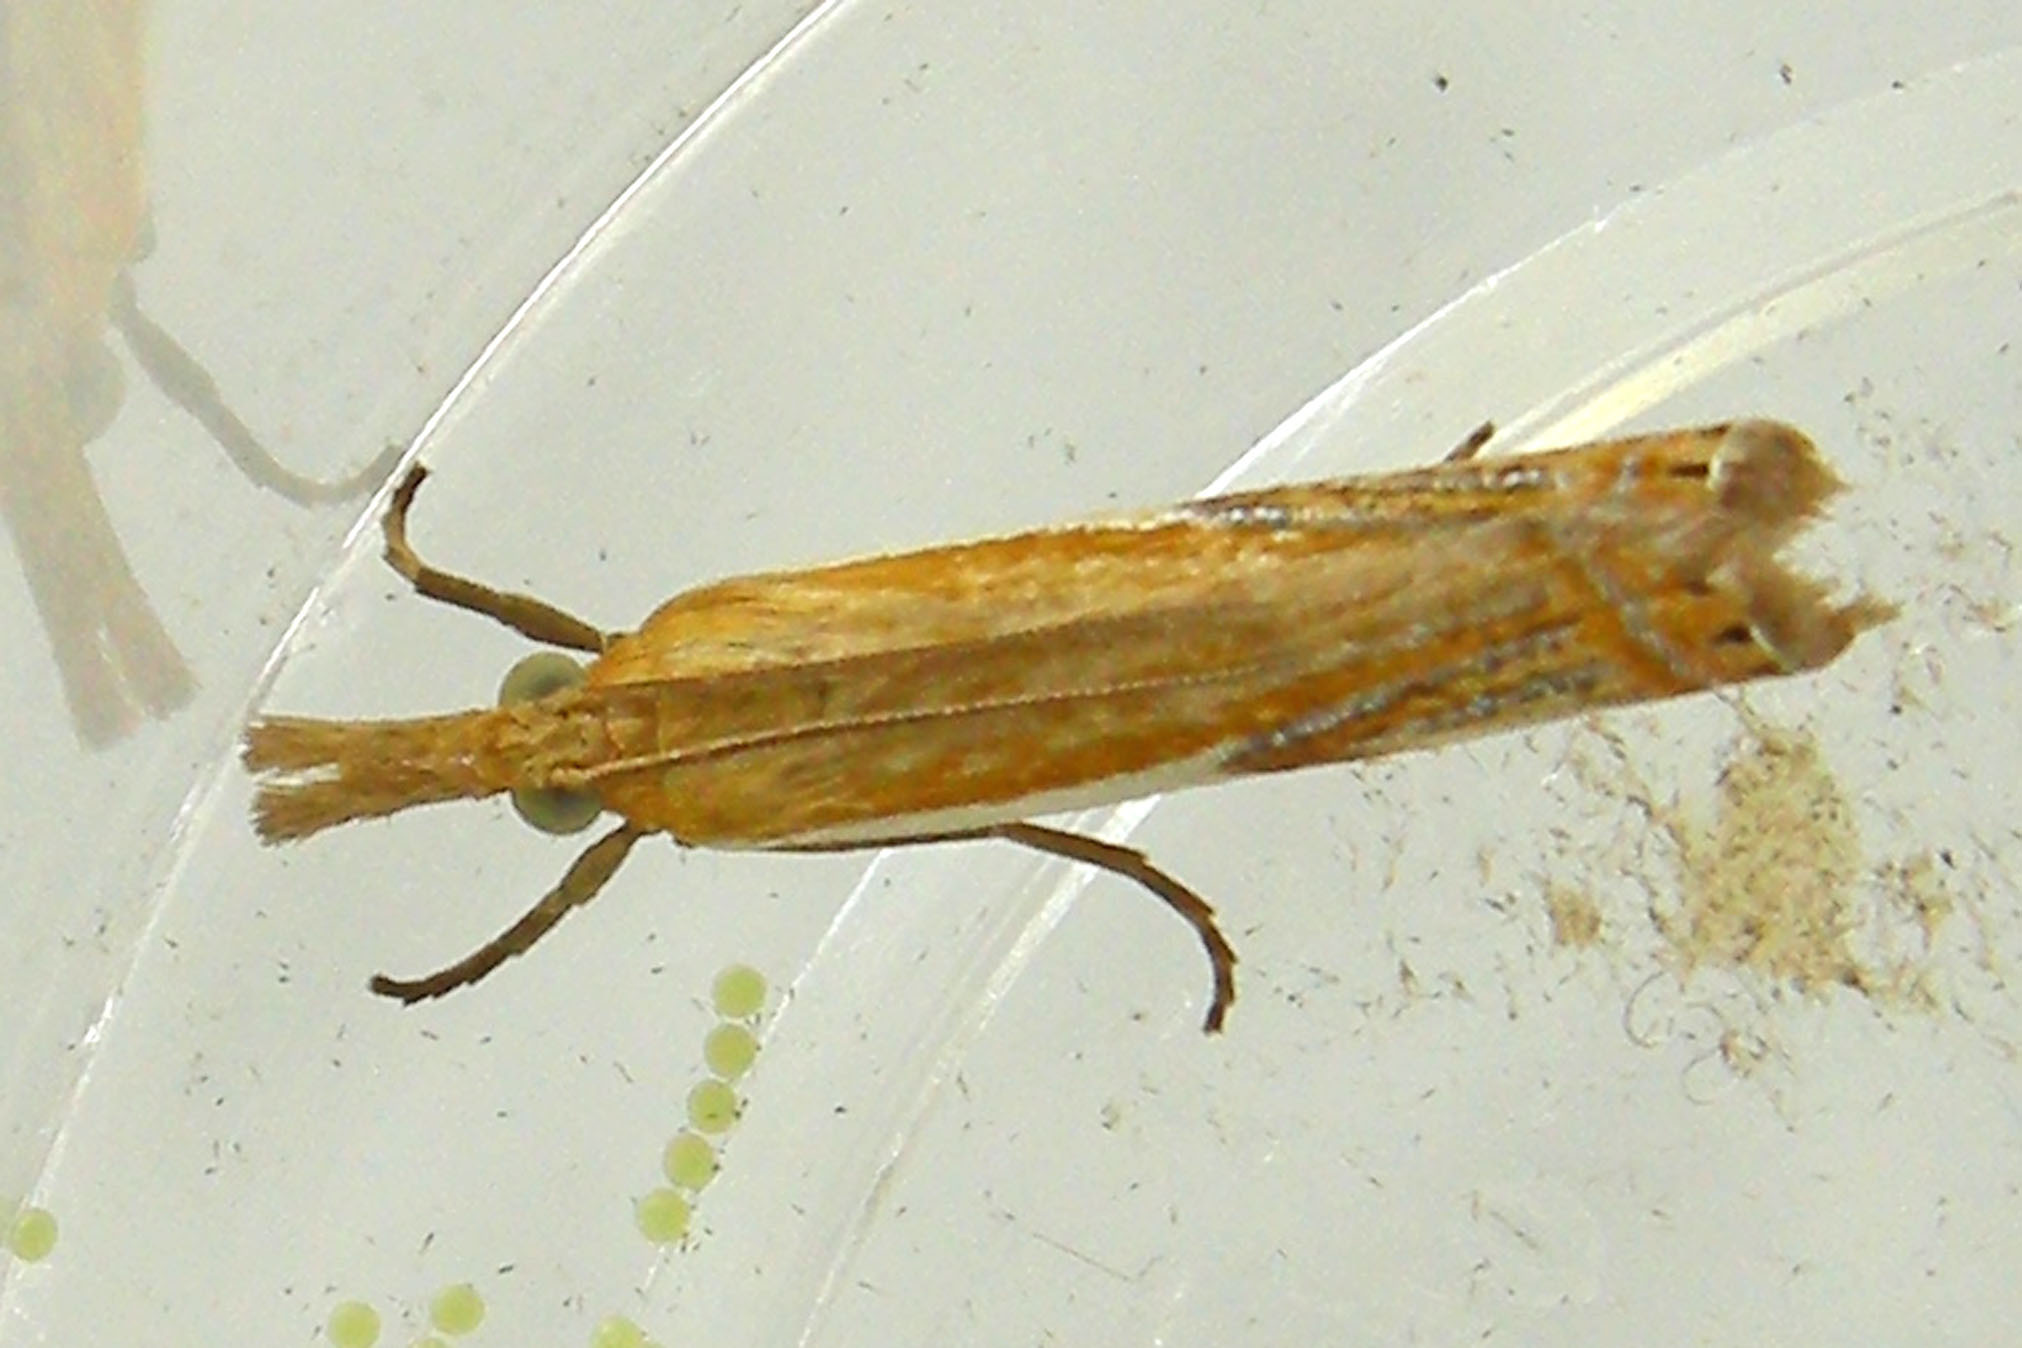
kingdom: Animalia
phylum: Arthropoda
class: Insecta
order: Lepidoptera
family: Crambidae
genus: Crambus
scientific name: Crambus agitatellus
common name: Double-banded grass-veneer
